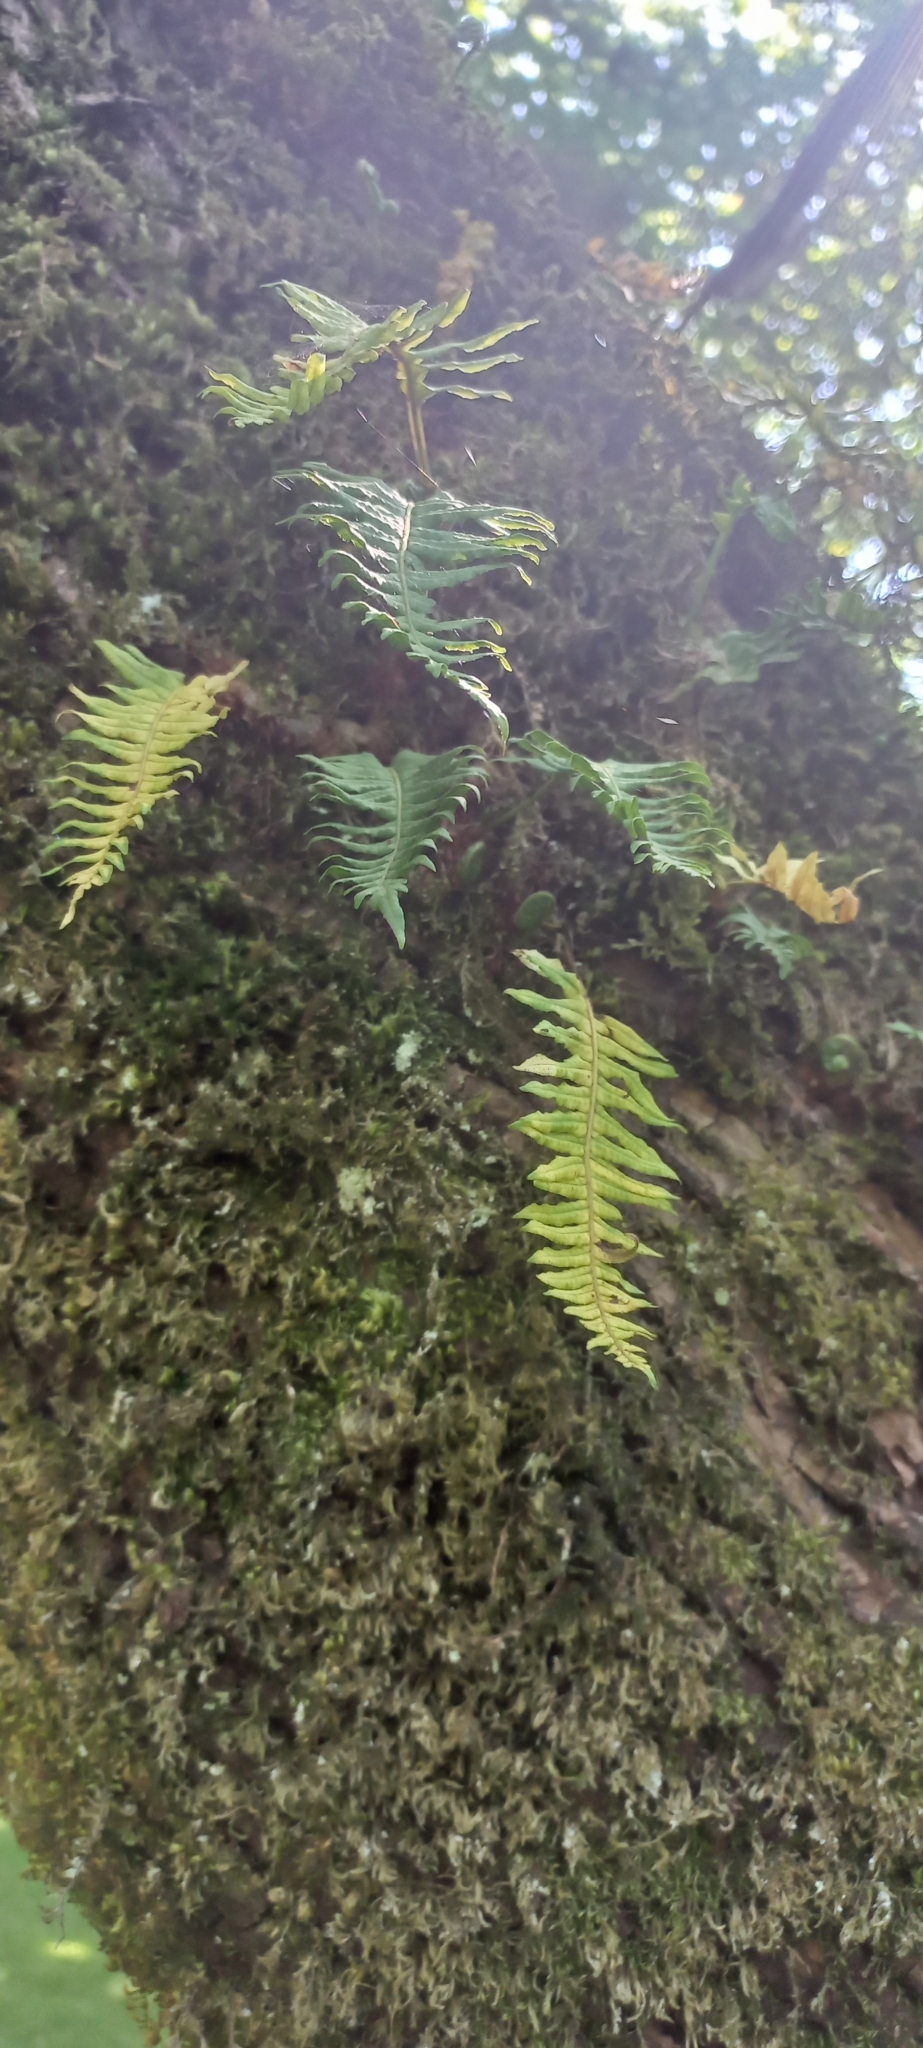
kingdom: Plantae
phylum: Tracheophyta
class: Polypodiopsida
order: Polypodiales
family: Polypodiaceae
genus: Polypodium
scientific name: Polypodium glycyrrhiza
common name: Licorice fern
